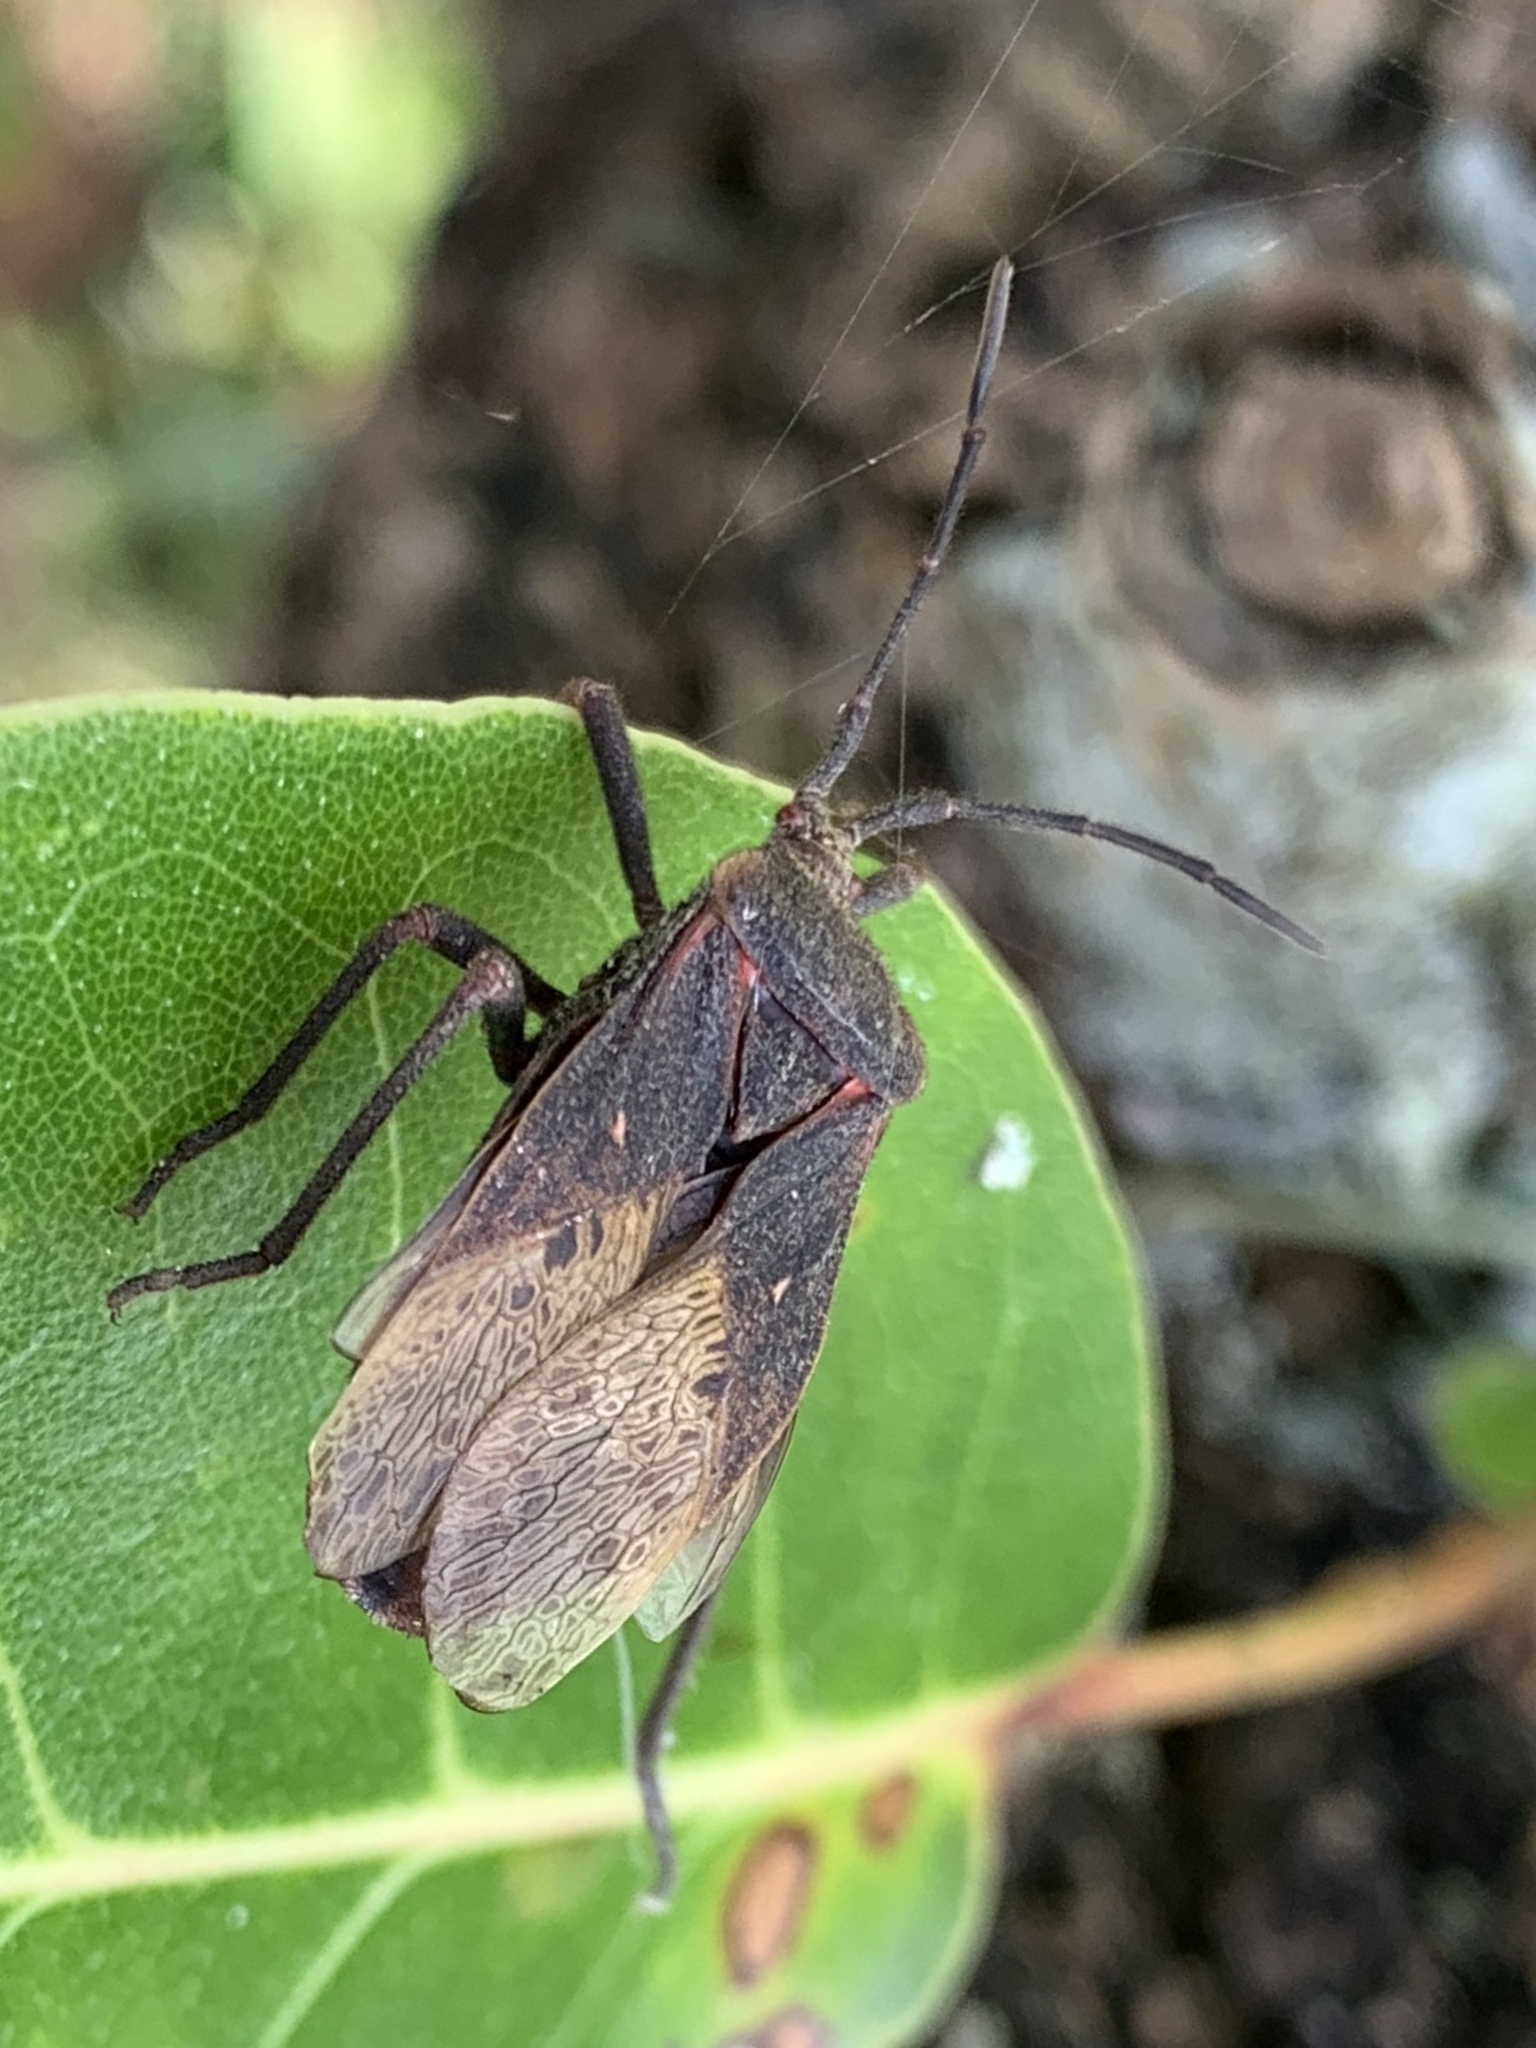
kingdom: Animalia
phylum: Arthropoda
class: Insecta
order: Hemiptera
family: Coreidae
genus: Spartocera
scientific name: Spartocera batatas
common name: Giant sweetpotato bug
